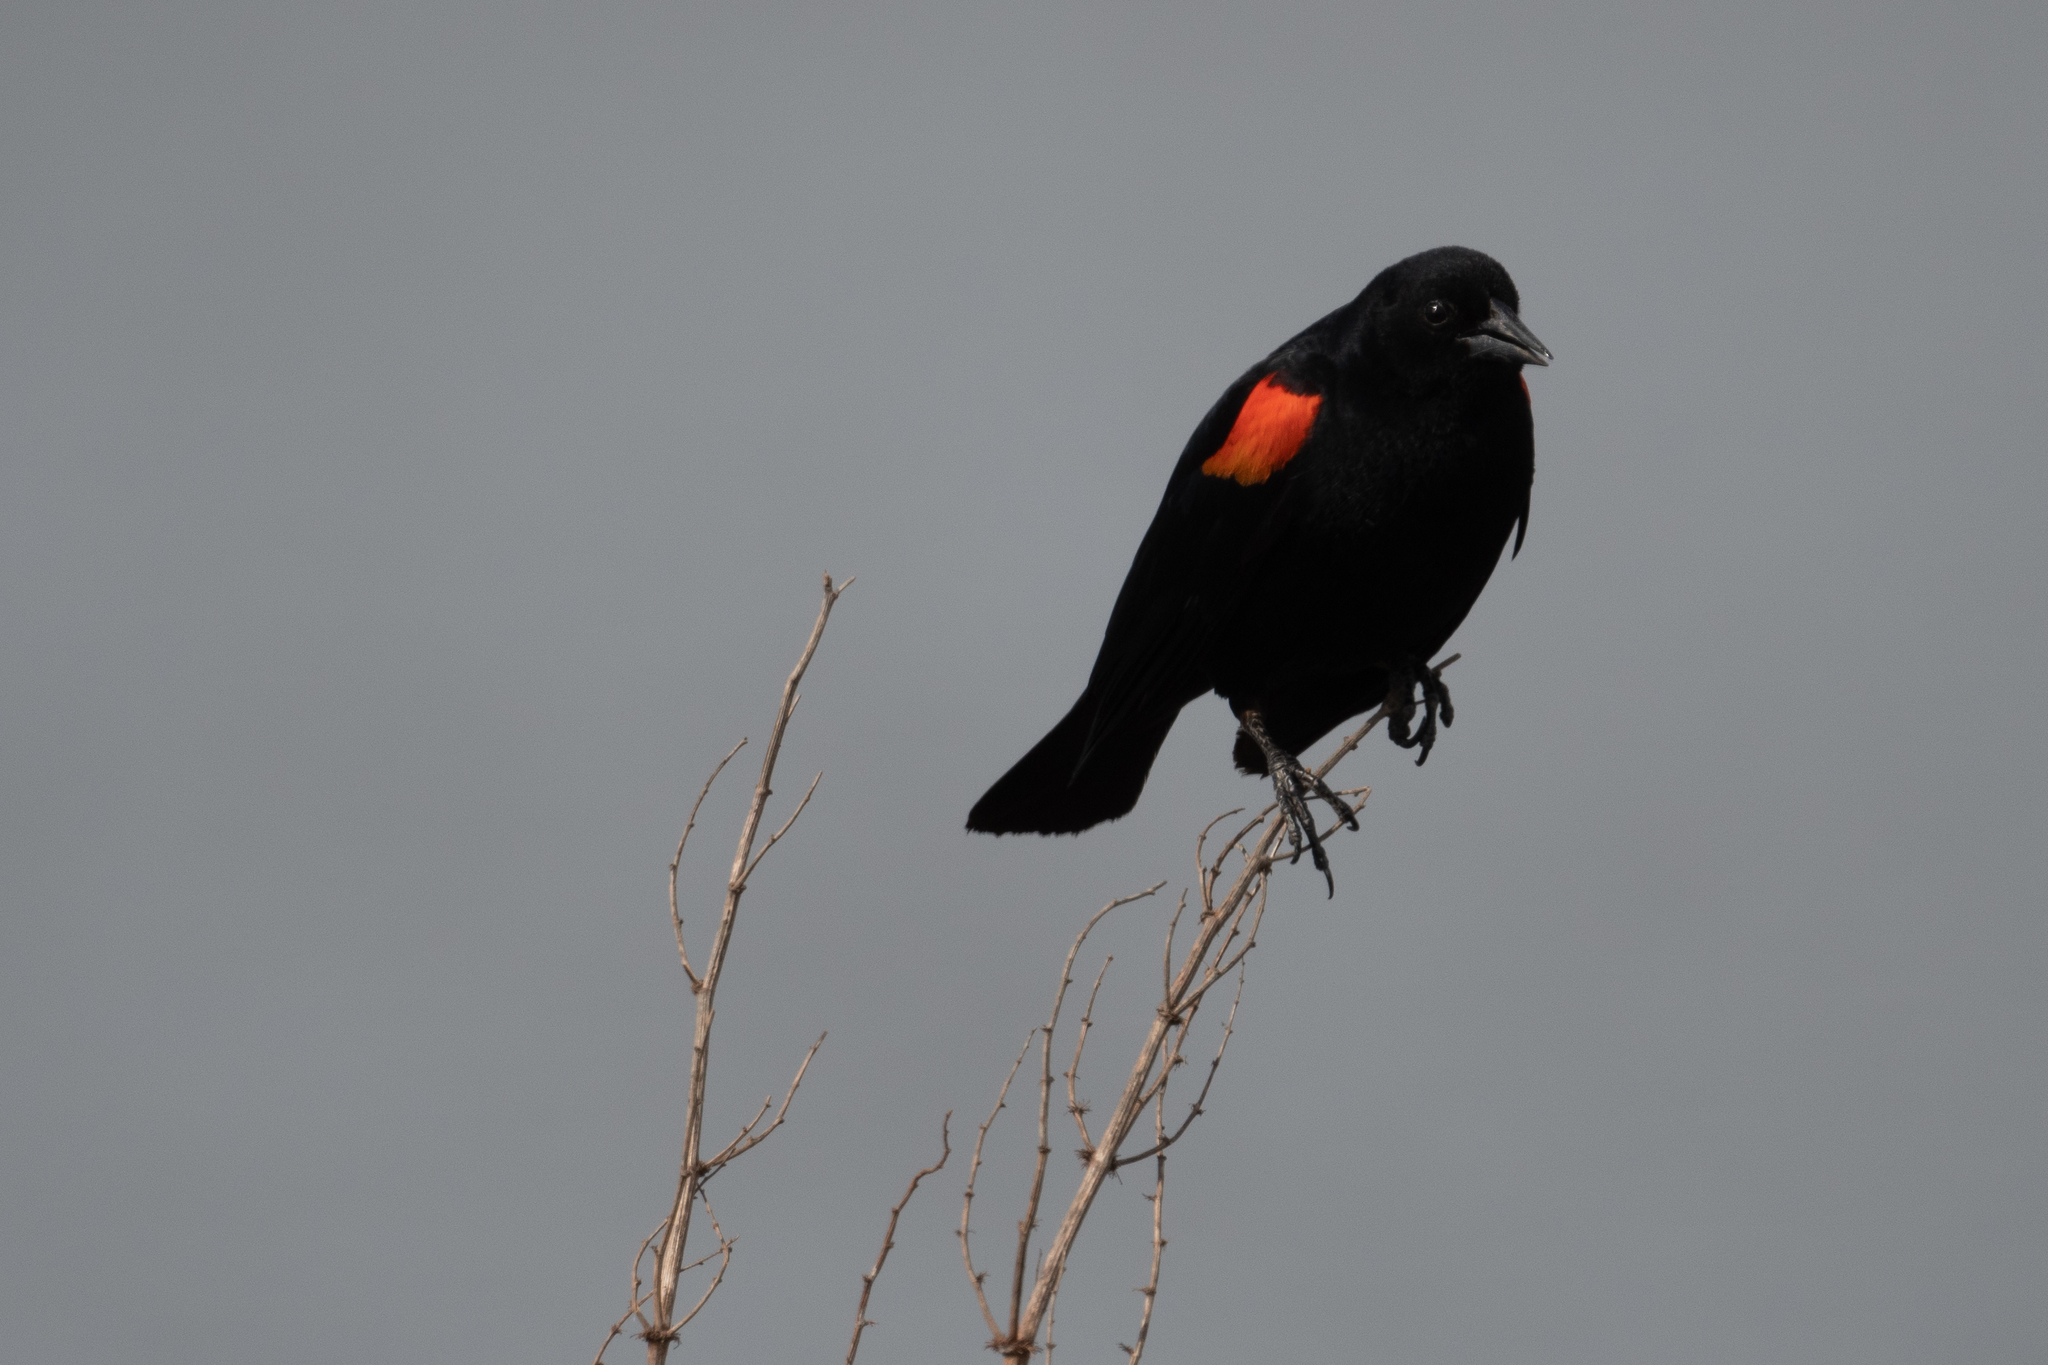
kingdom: Animalia
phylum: Chordata
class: Aves
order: Passeriformes
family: Icteridae
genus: Agelaius
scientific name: Agelaius phoeniceus
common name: Red-winged blackbird
